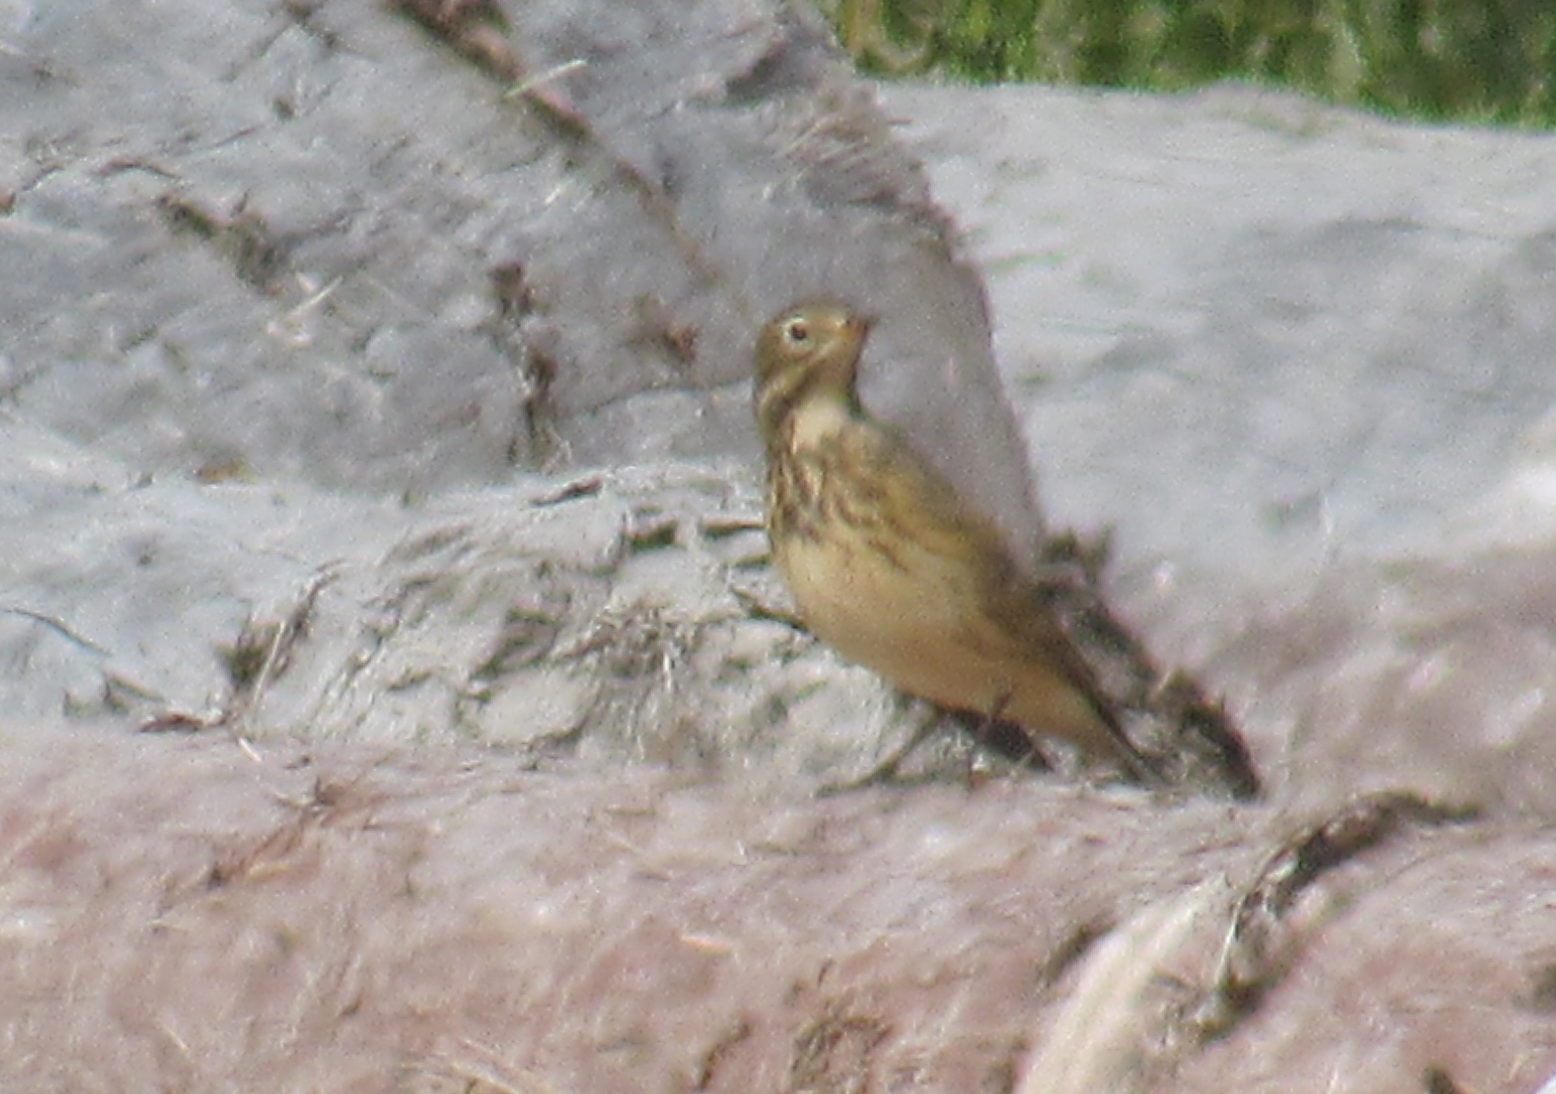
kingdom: Animalia
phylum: Chordata
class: Aves
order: Passeriformes
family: Motacillidae
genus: Anthus
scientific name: Anthus rubescens
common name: Buff-bellied pipit
